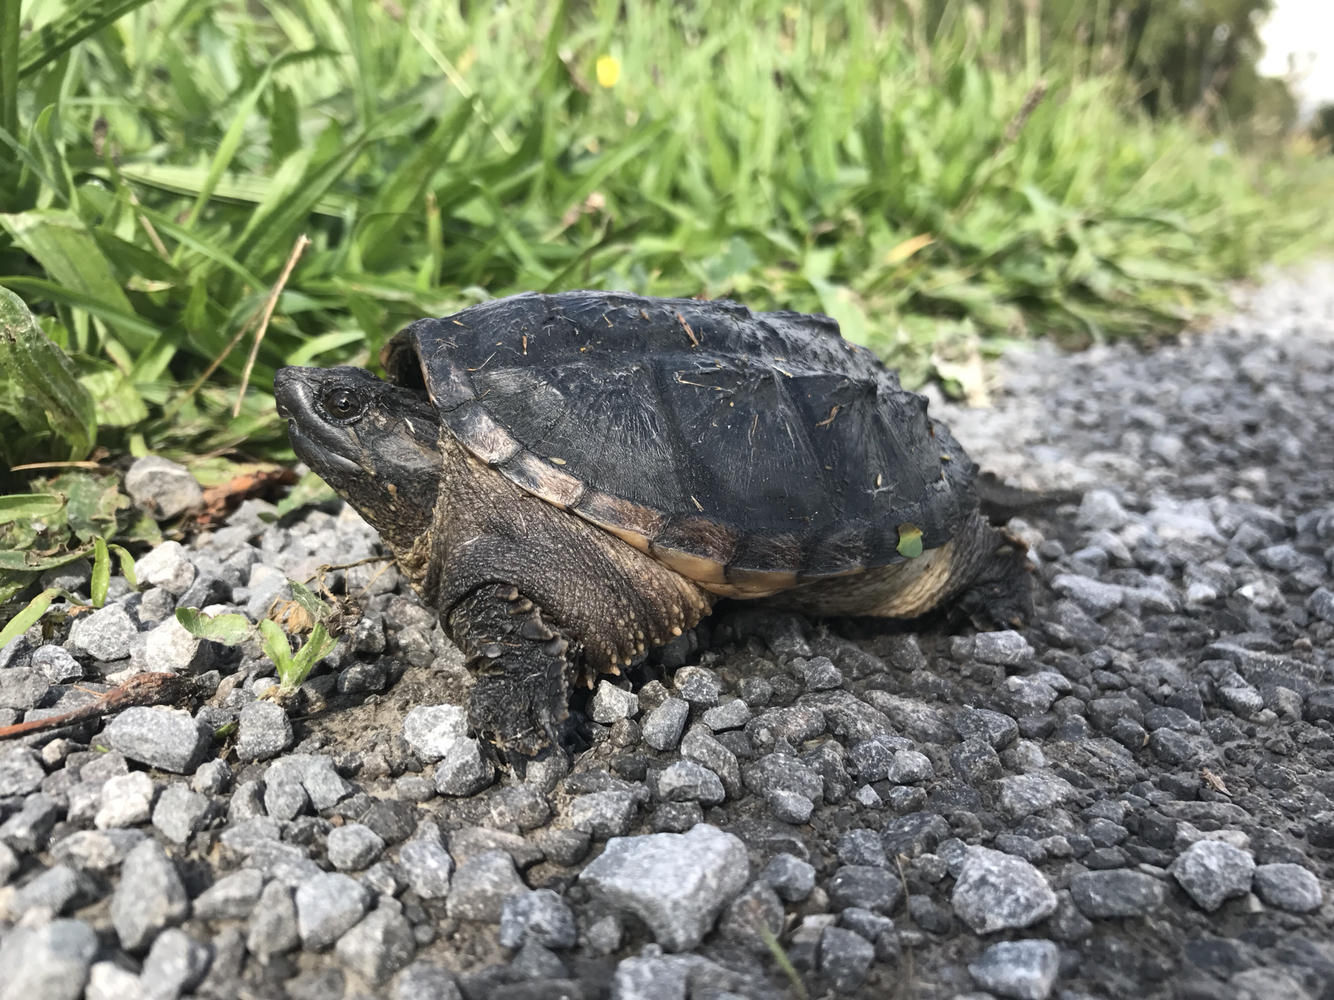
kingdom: Animalia
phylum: Chordata
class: Testudines
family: Chelydridae
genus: Chelydra
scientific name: Chelydra serpentina
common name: Common snapping turtle
